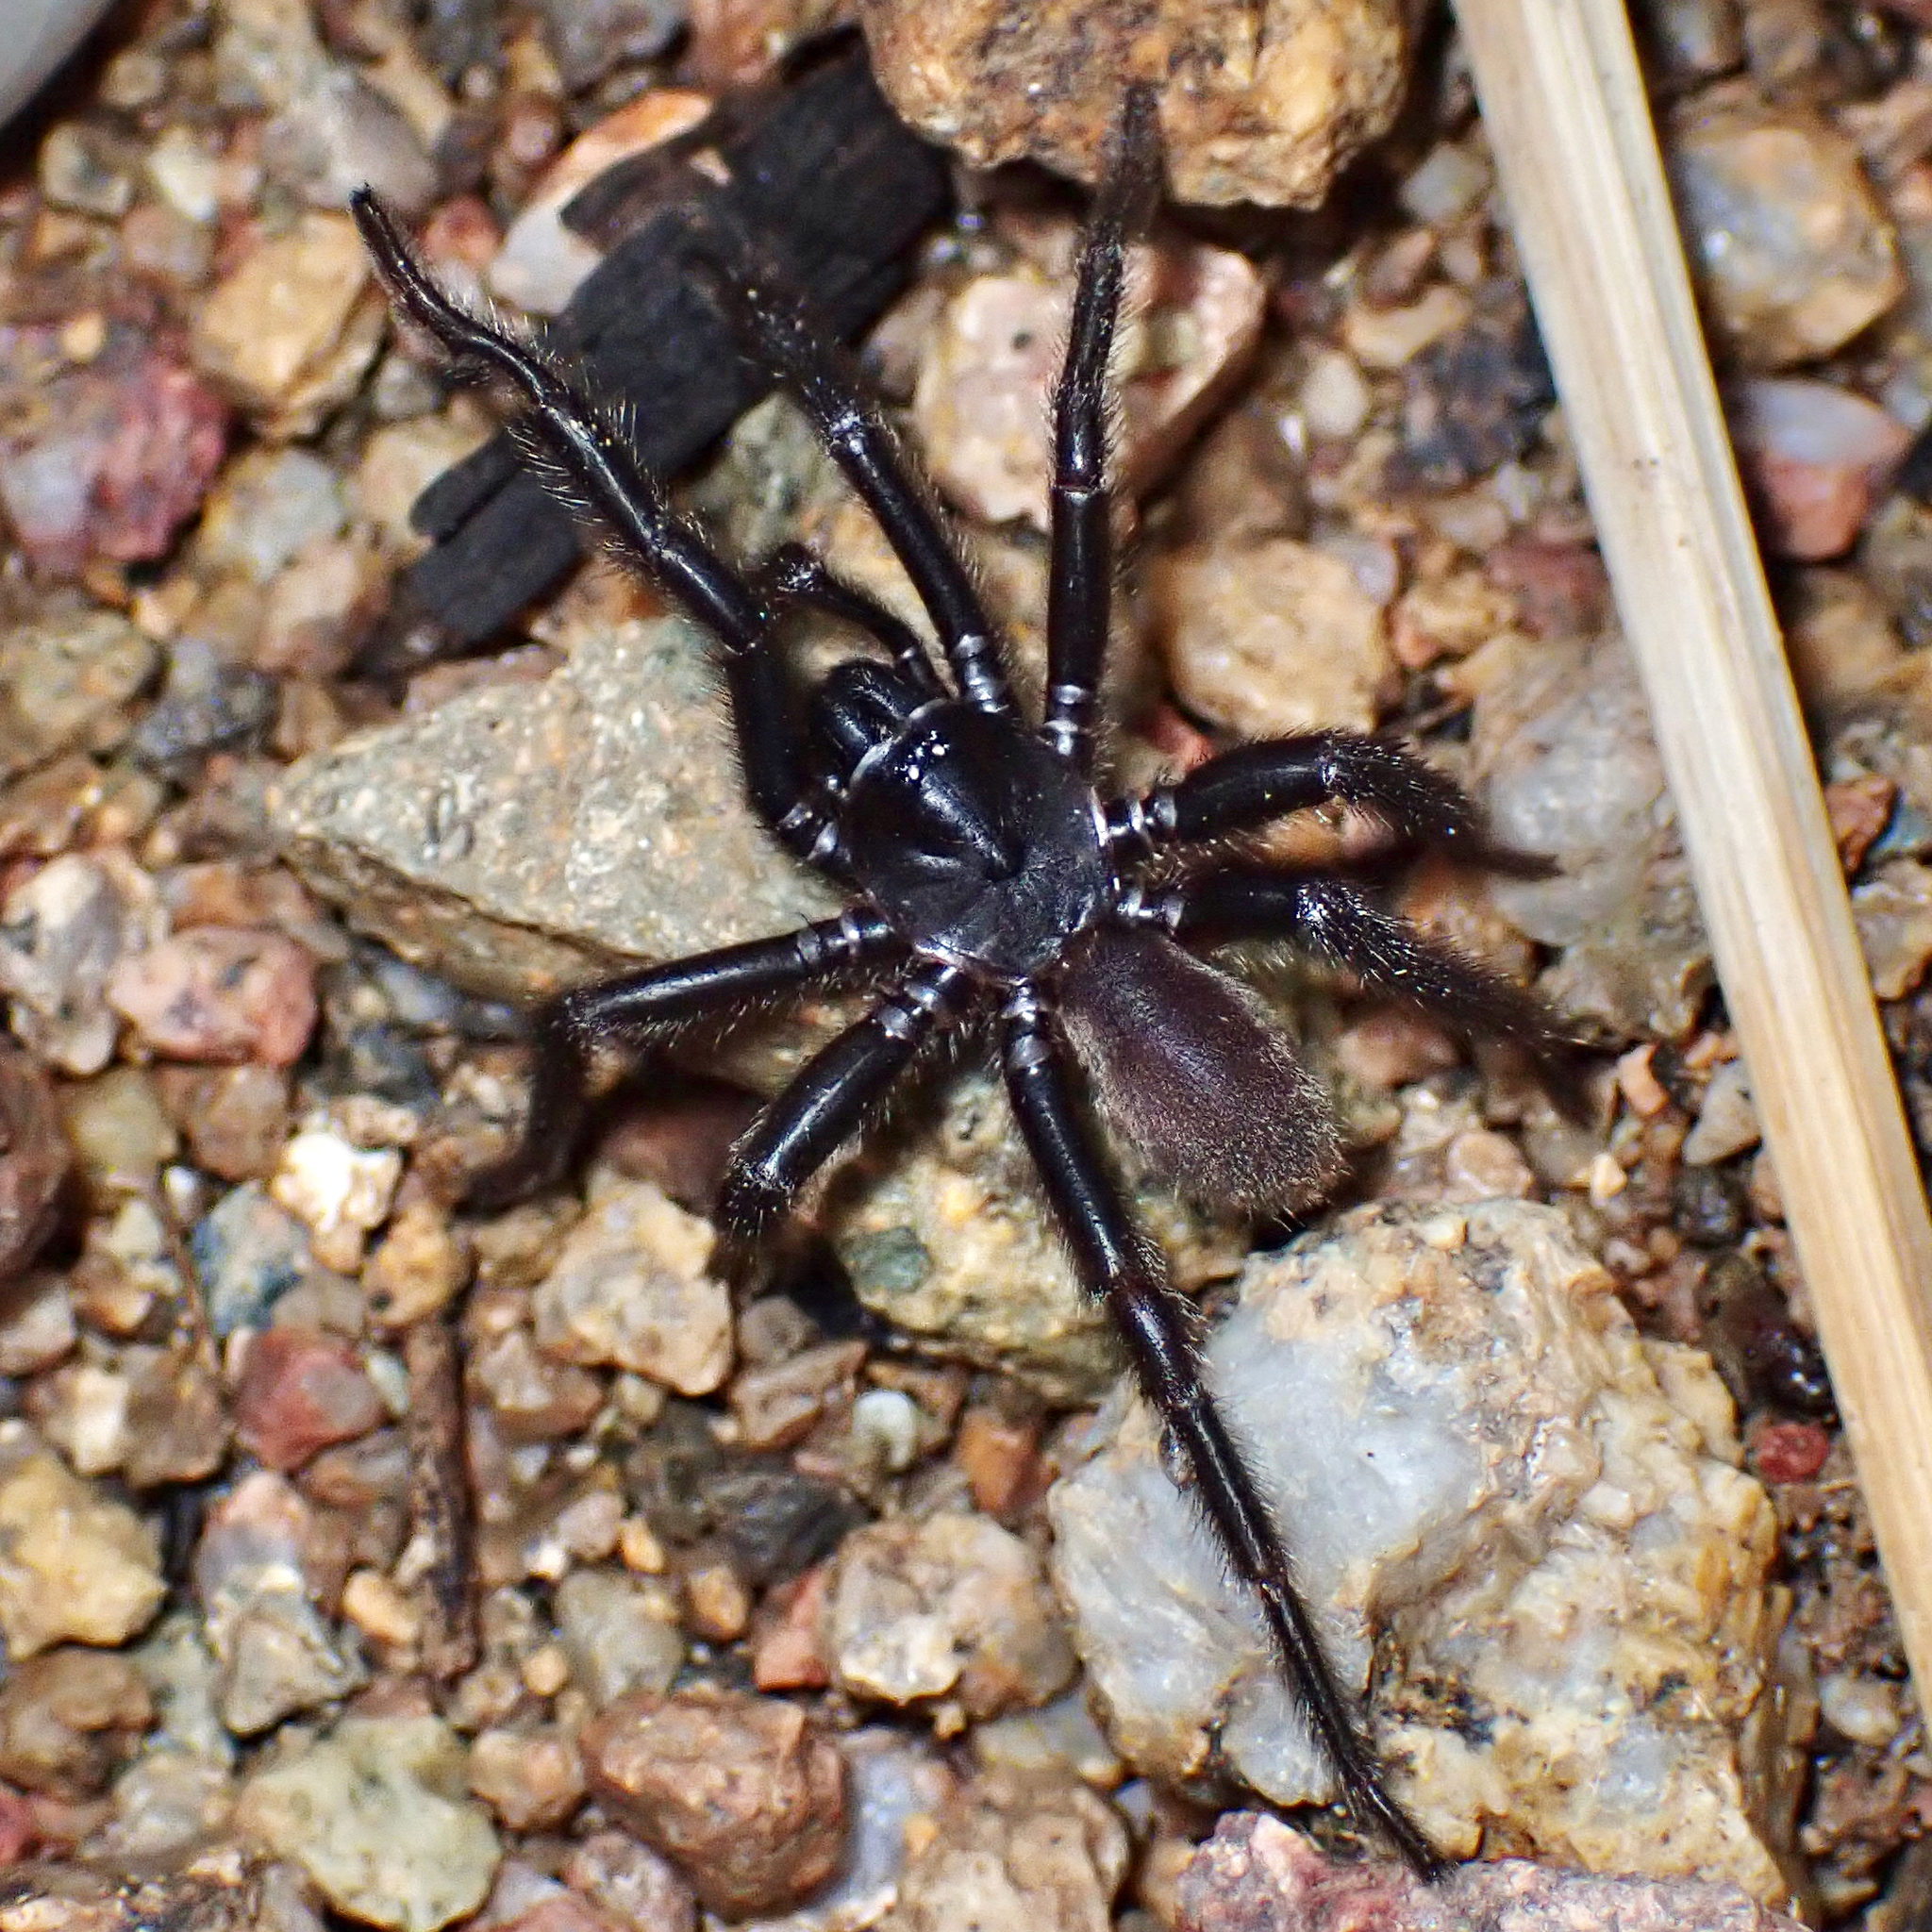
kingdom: Animalia
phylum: Arthropoda
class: Arachnida
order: Araneae
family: Euctenizidae
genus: Entychides
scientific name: Entychides arizonicus
